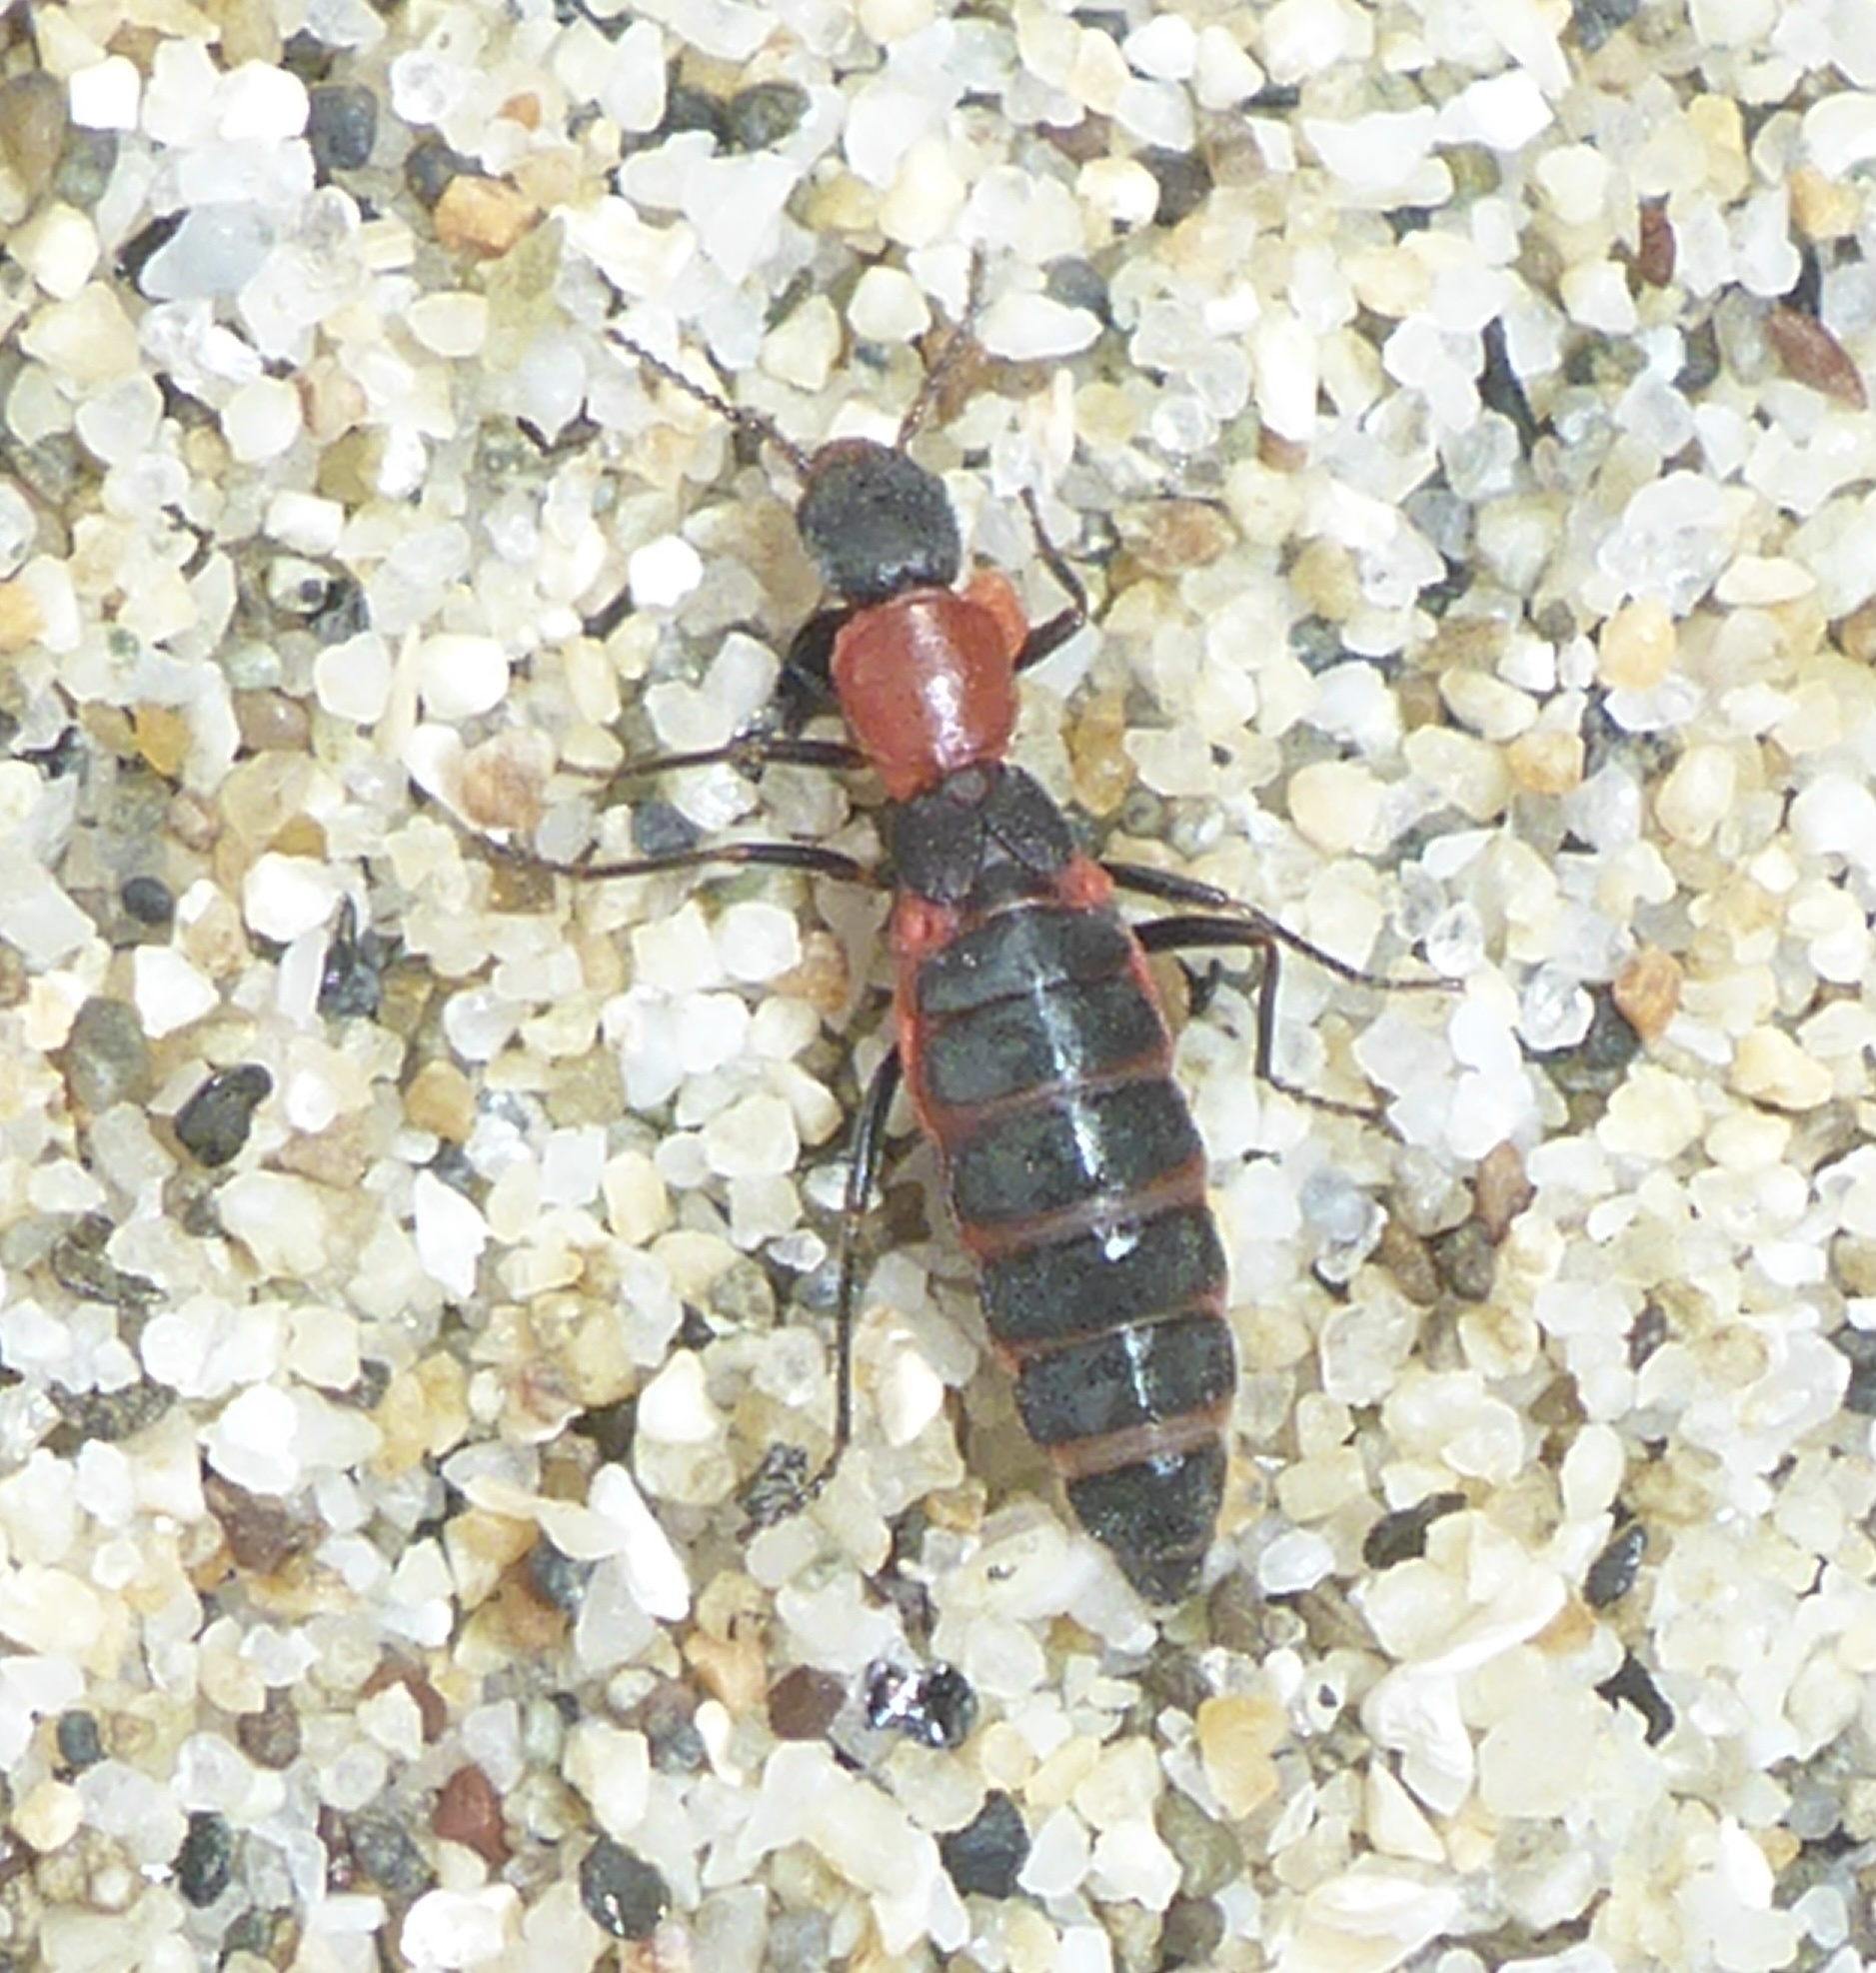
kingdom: Animalia
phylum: Arthropoda
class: Insecta
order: Coleoptera
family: Melyridae
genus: Endeodes
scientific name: Endeodes collaris
